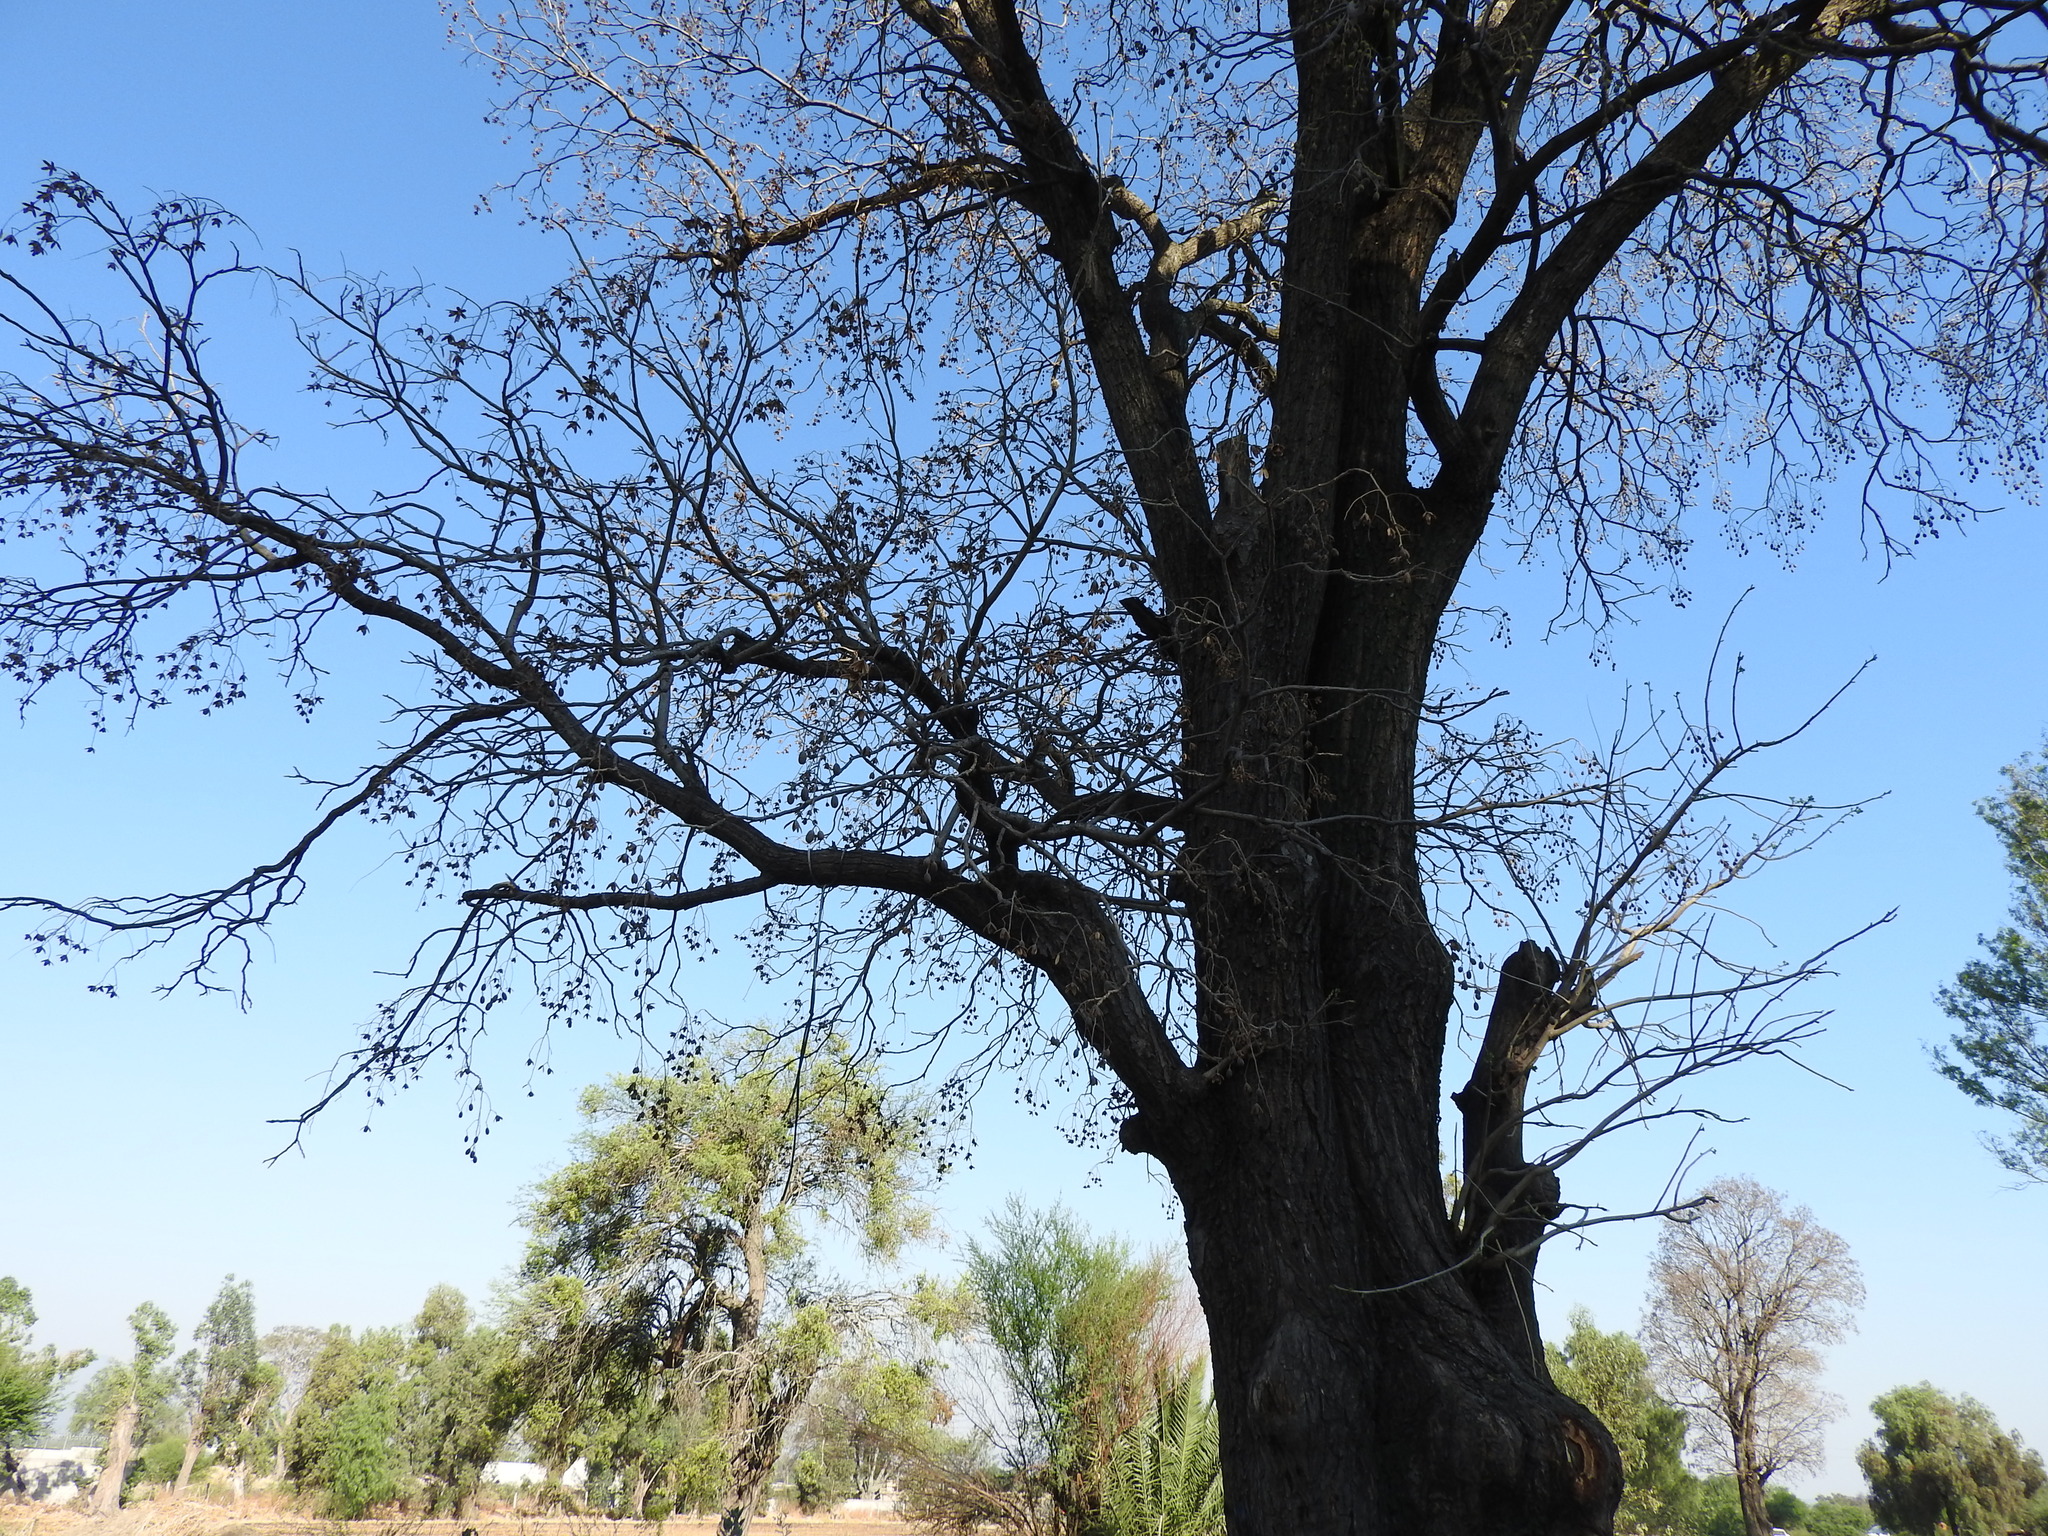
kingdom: Plantae
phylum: Tracheophyta
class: Magnoliopsida
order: Sapindales
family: Meliaceae
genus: Cedrela
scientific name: Cedrela odorata
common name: Red cedar
